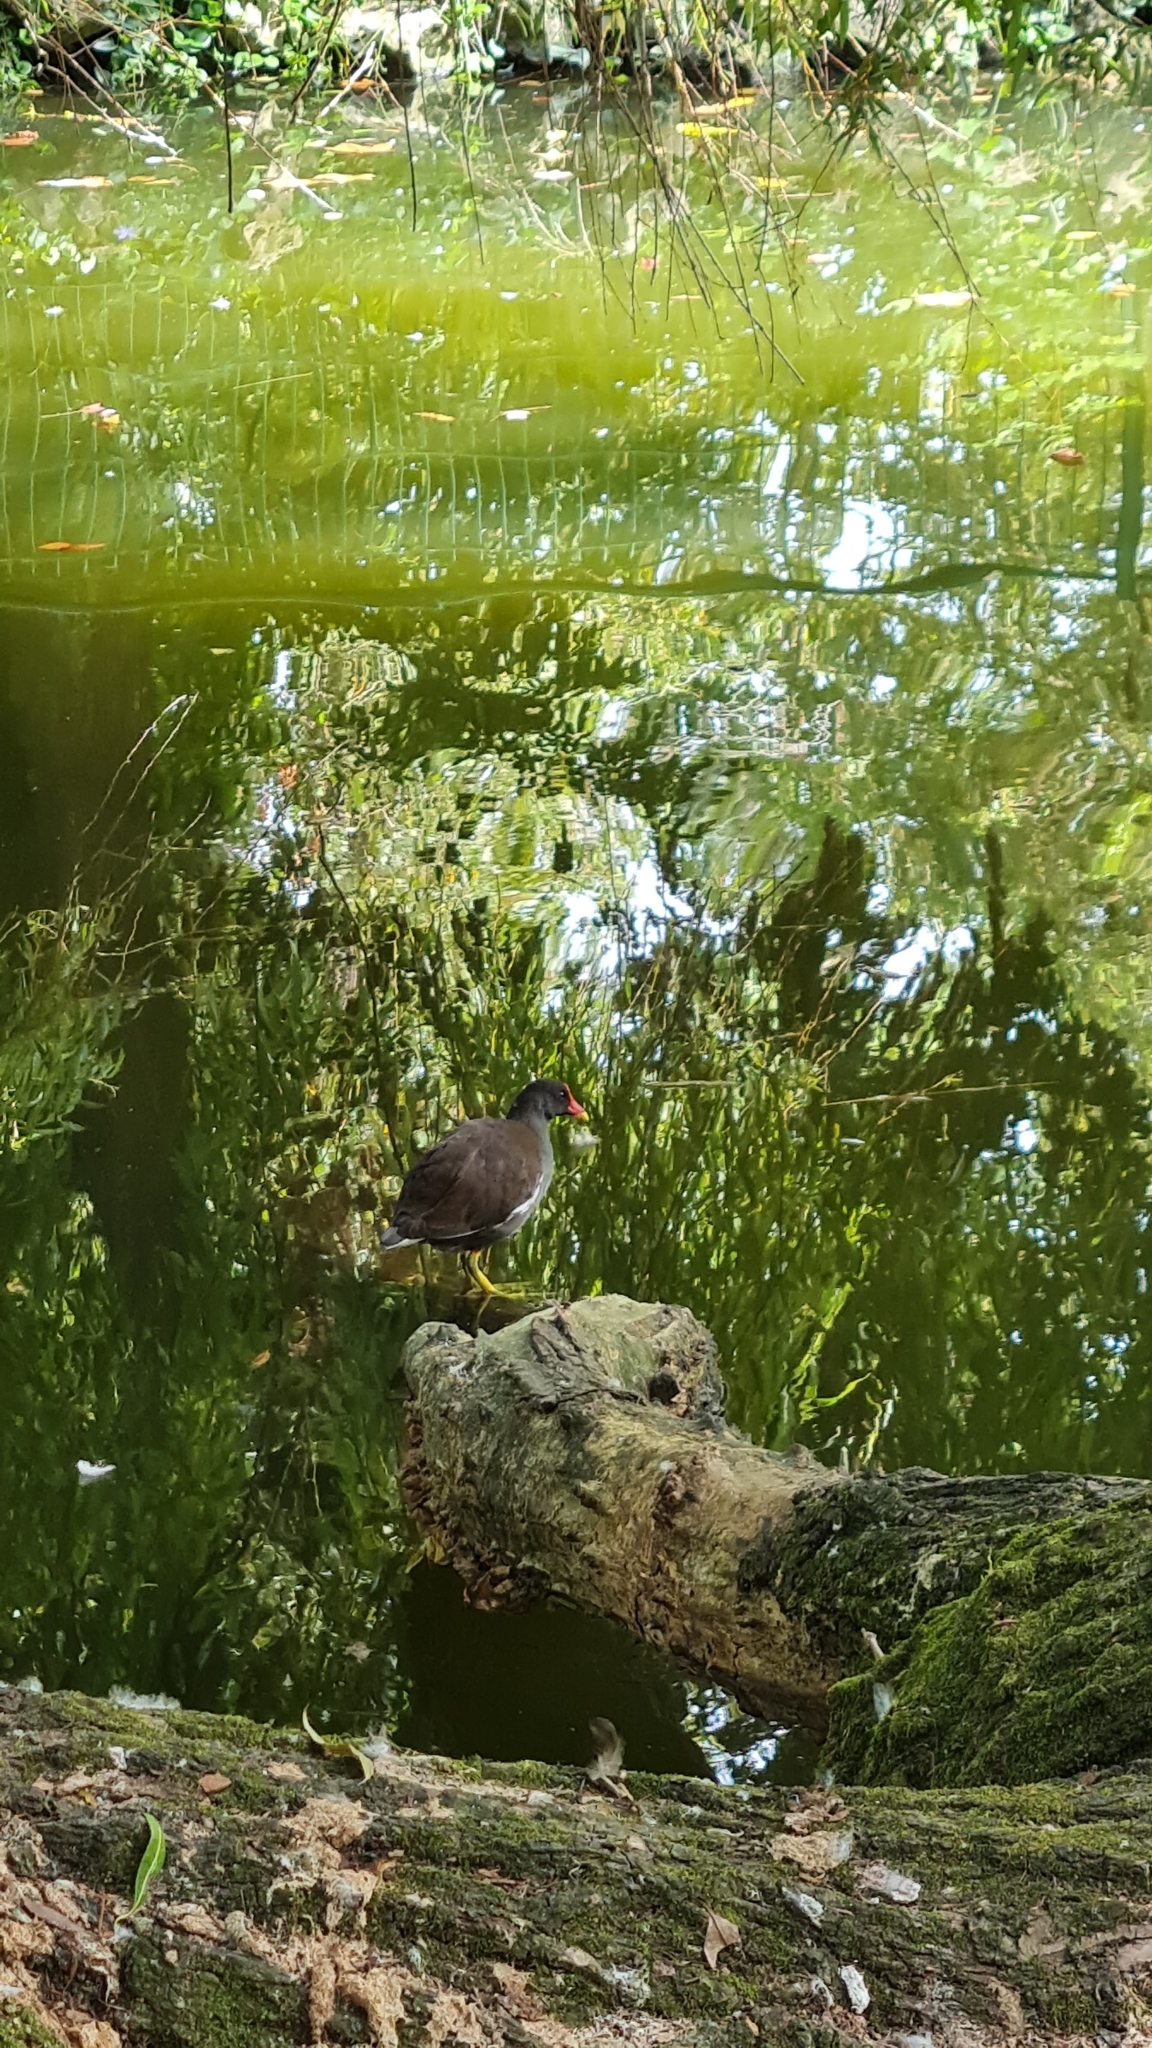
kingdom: Animalia
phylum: Chordata
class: Aves
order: Gruiformes
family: Rallidae
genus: Gallinula
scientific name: Gallinula chloropus
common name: Common moorhen
